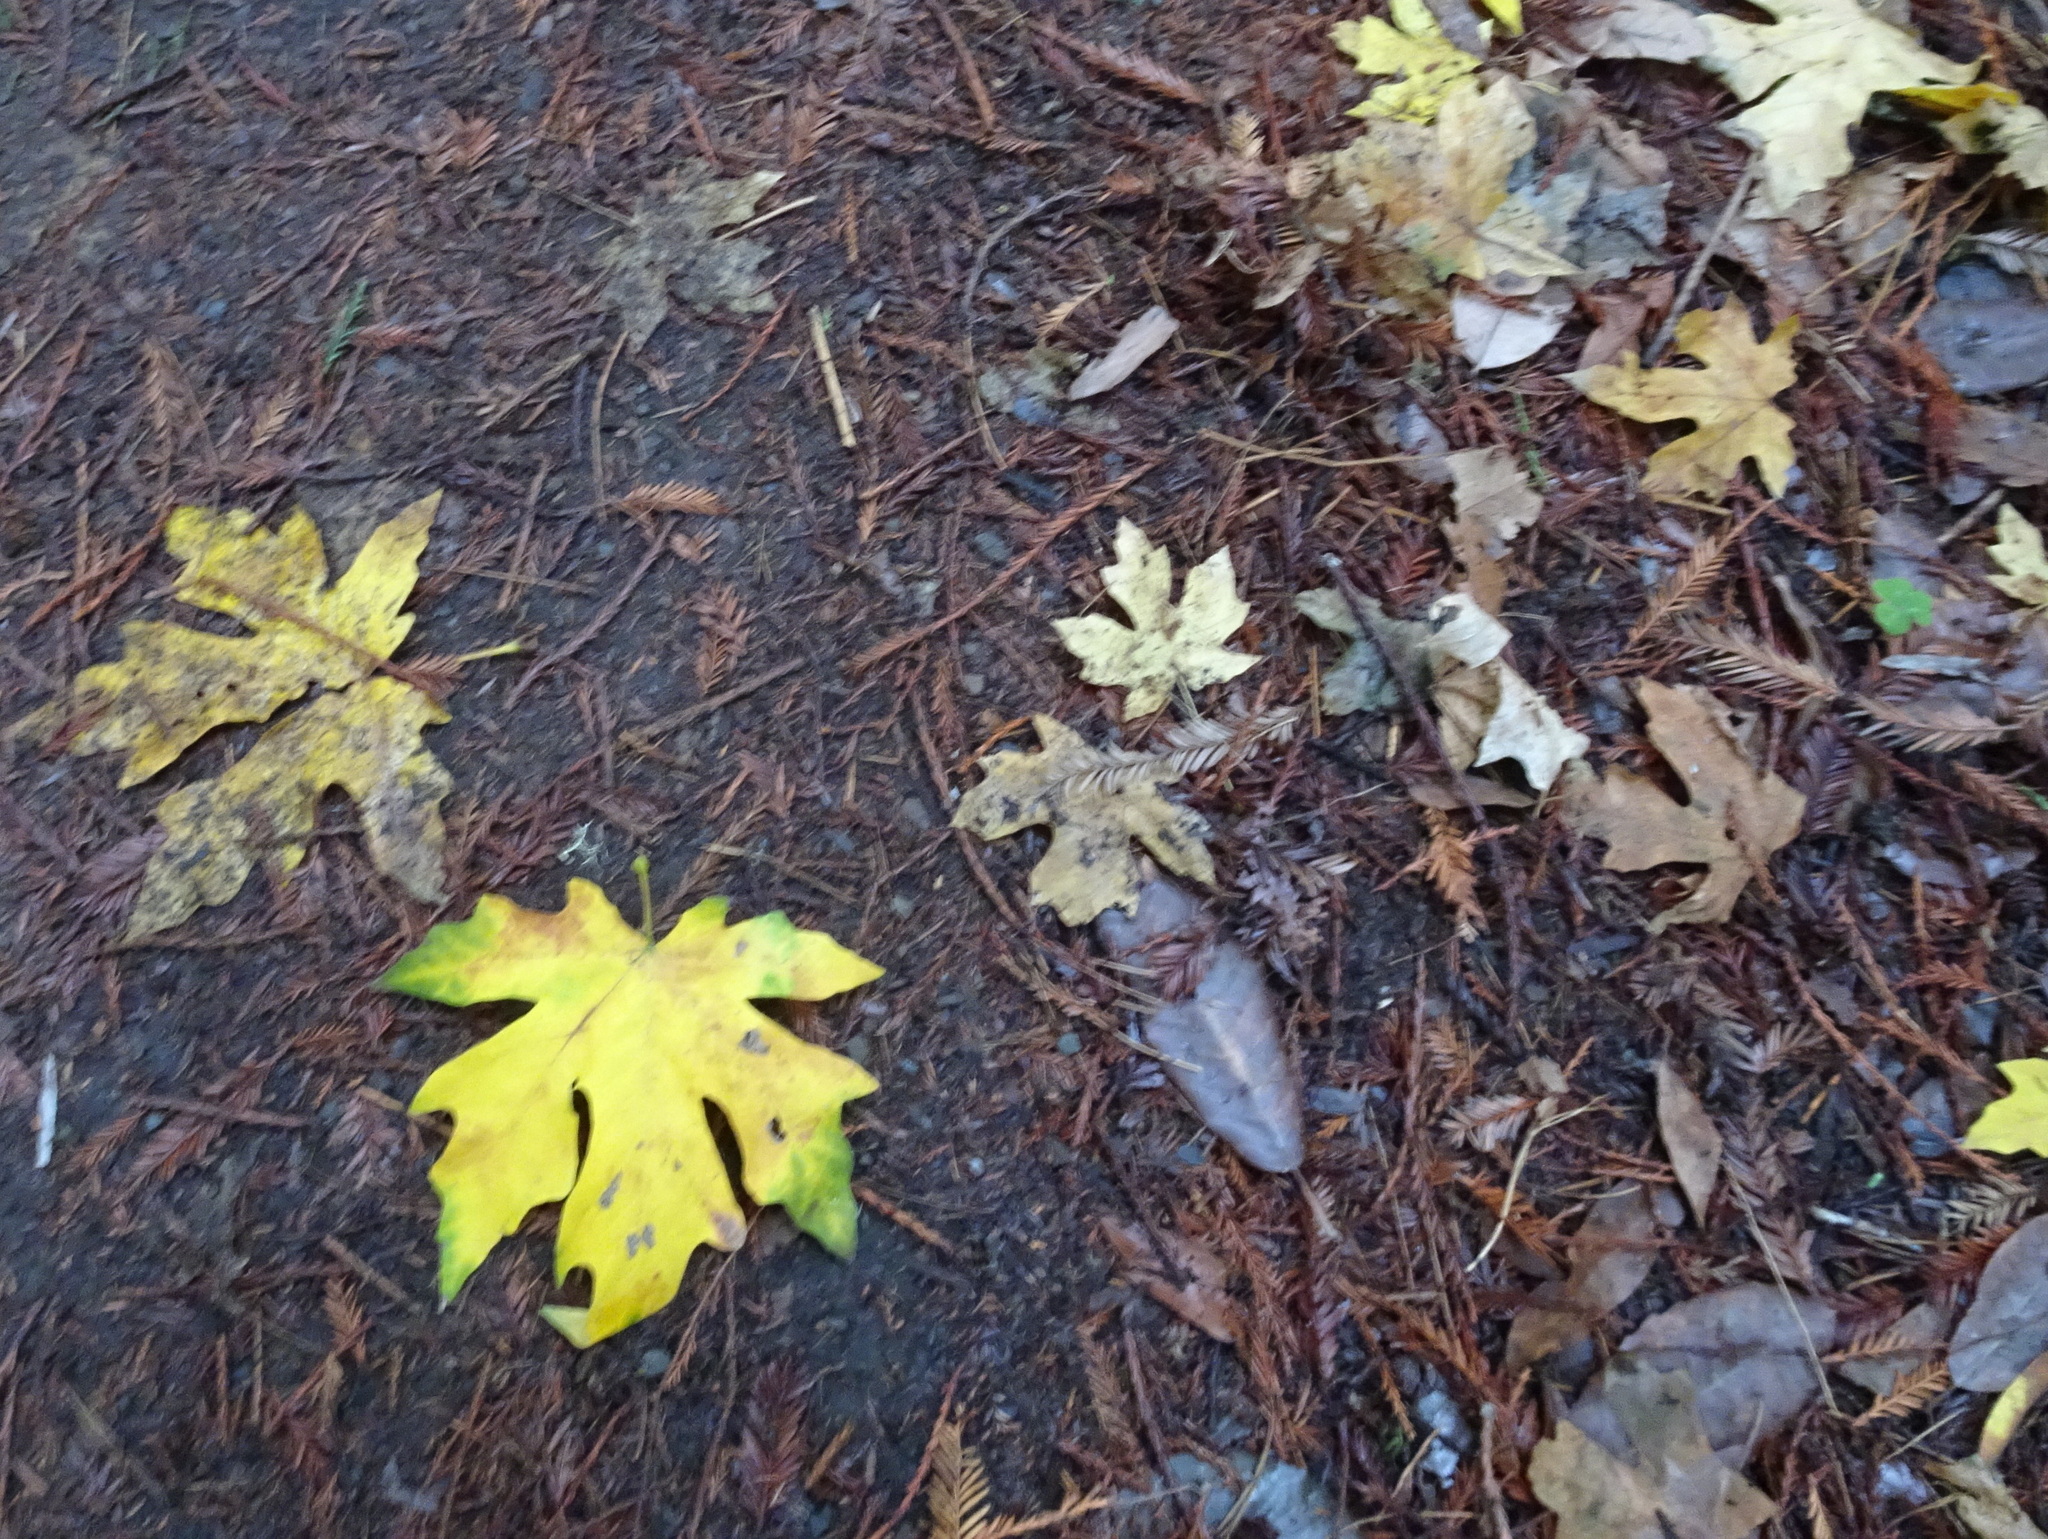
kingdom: Plantae
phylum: Tracheophyta
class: Magnoliopsida
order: Sapindales
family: Sapindaceae
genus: Acer
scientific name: Acer macrophyllum
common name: Oregon maple
